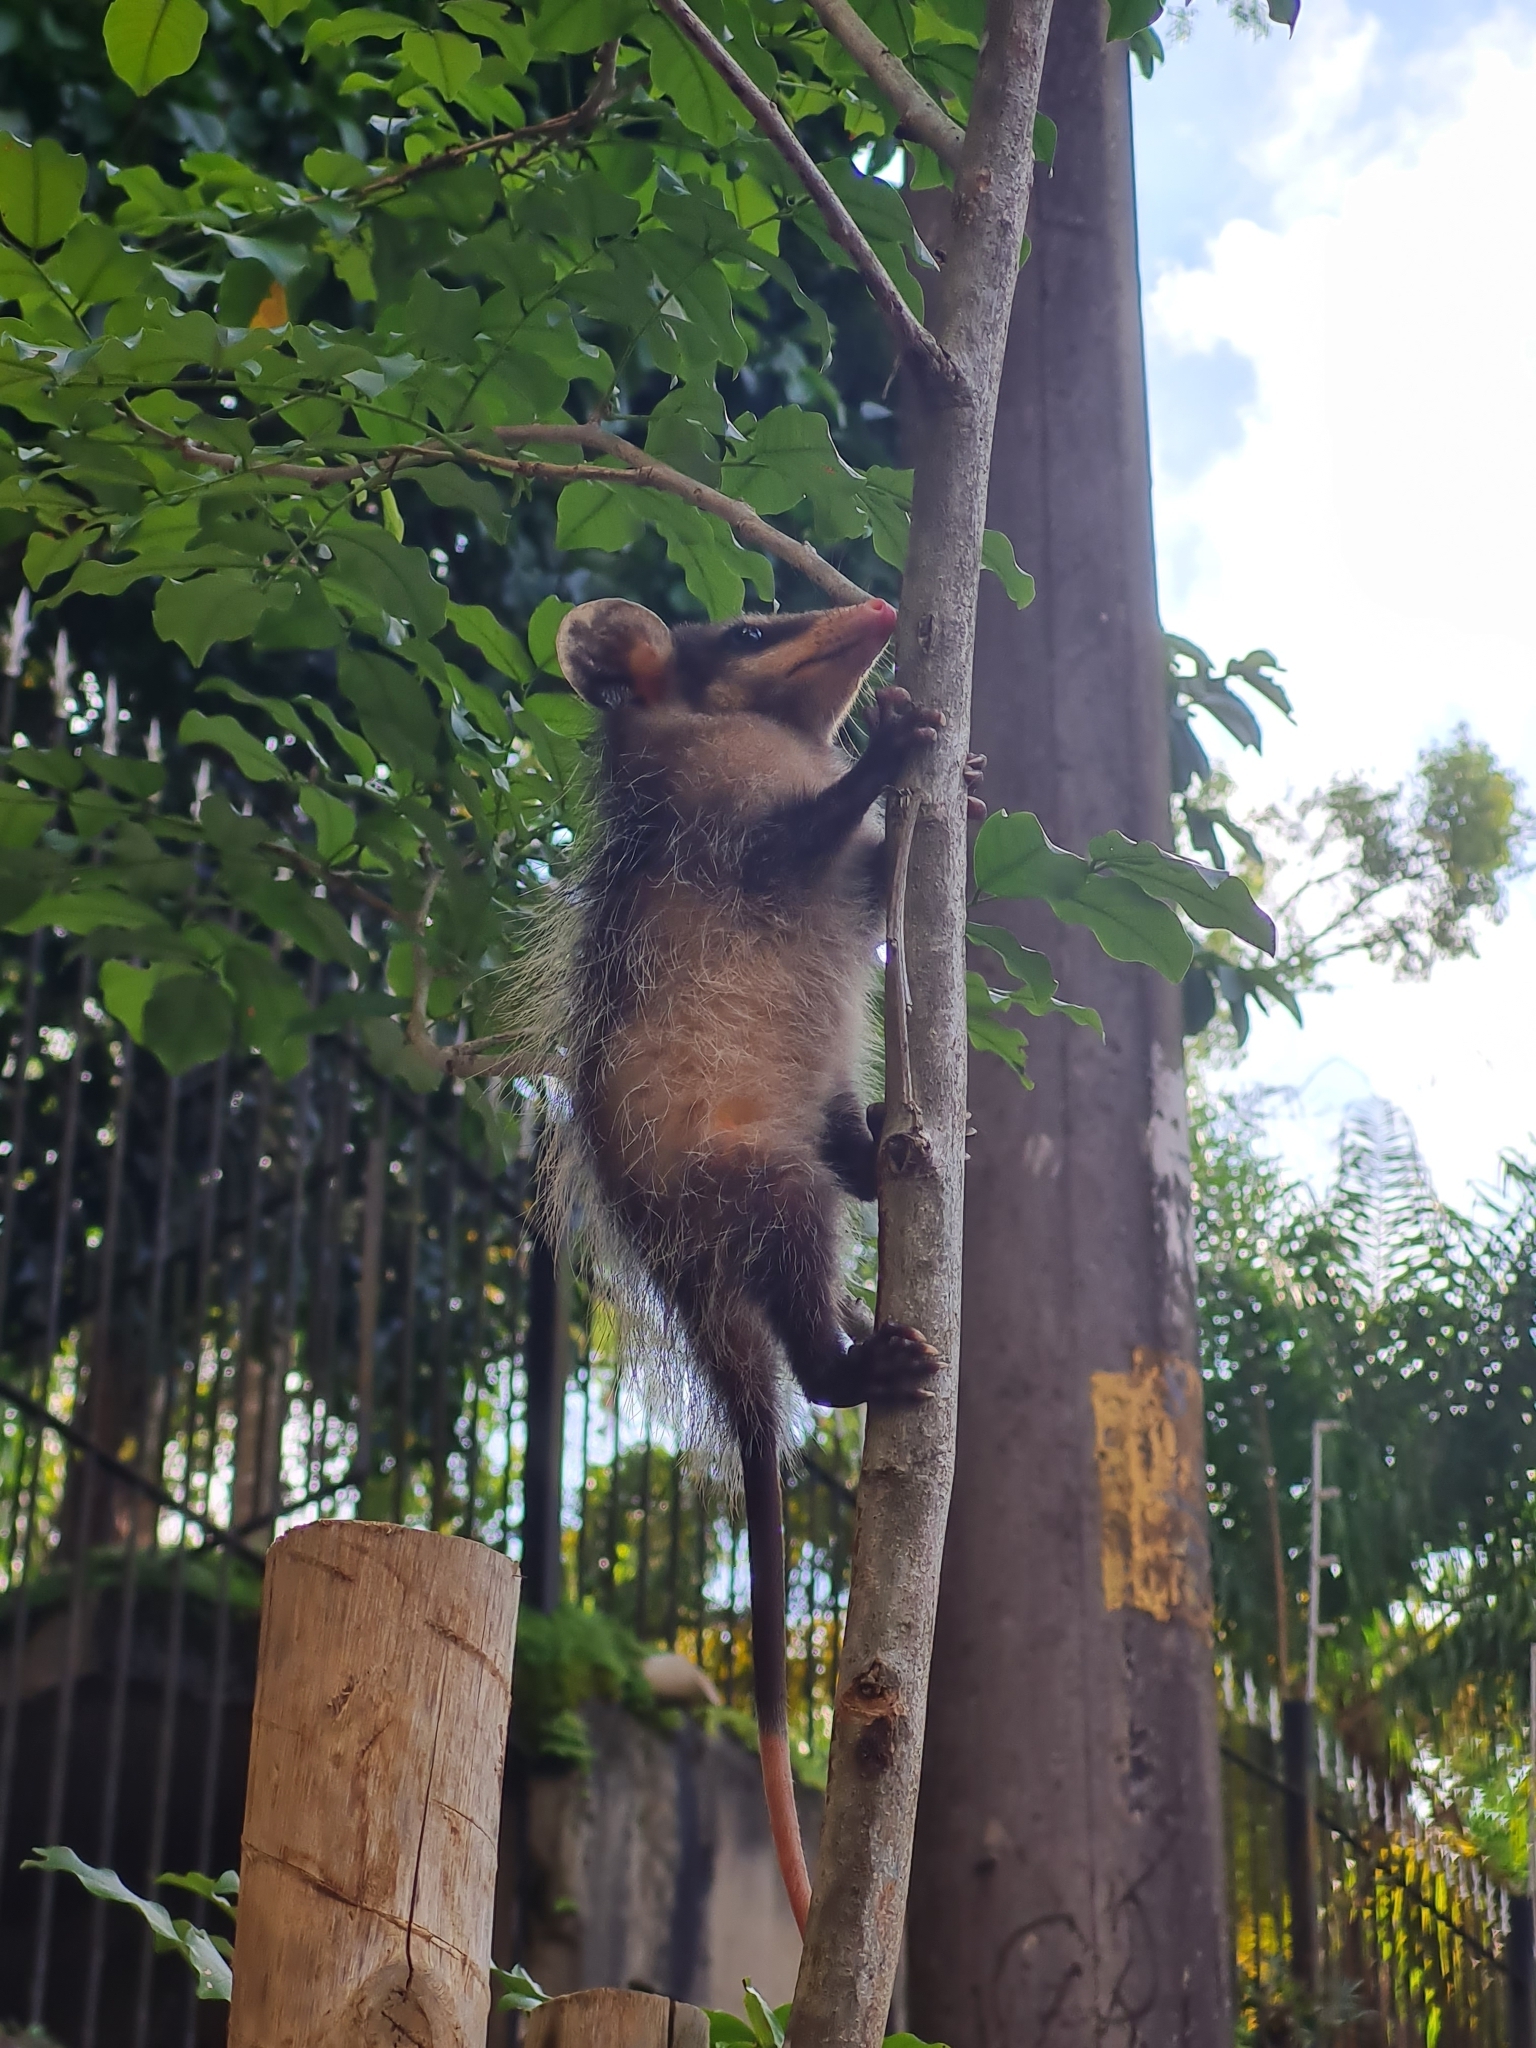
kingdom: Animalia
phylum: Chordata
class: Mammalia
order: Didelphimorphia
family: Didelphidae
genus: Didelphis
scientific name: Didelphis aurita
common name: Big-eared opossum
